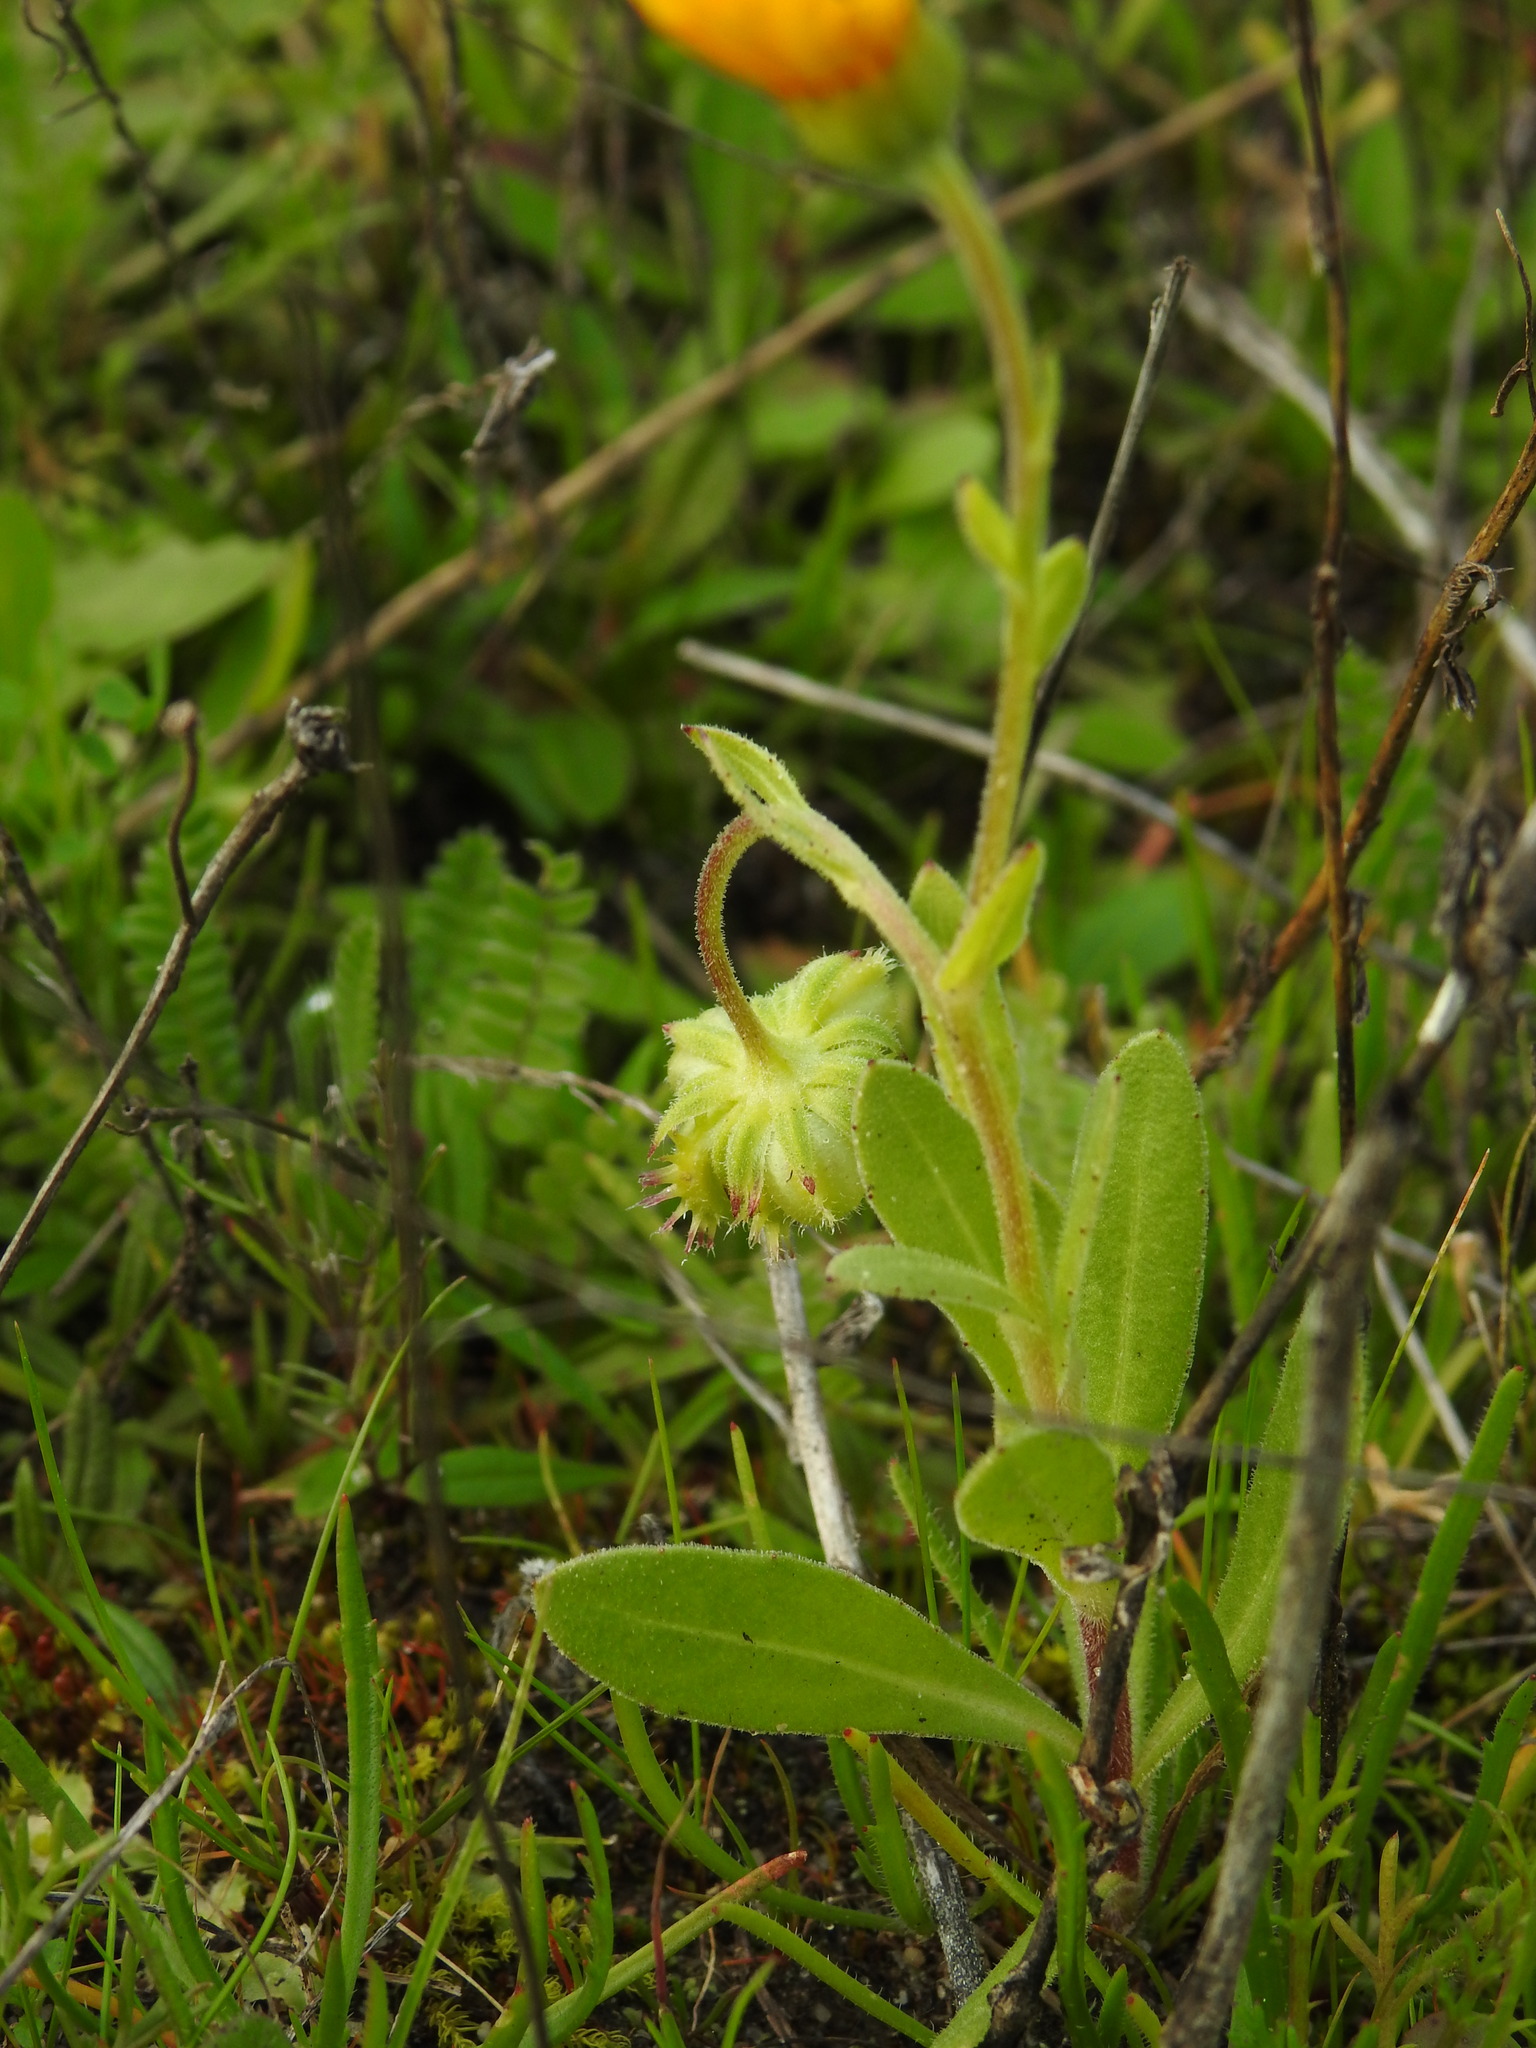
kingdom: Plantae
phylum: Tracheophyta
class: Magnoliopsida
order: Asterales
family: Asteraceae
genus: Calendula
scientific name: Calendula arvensis
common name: Field marigold
